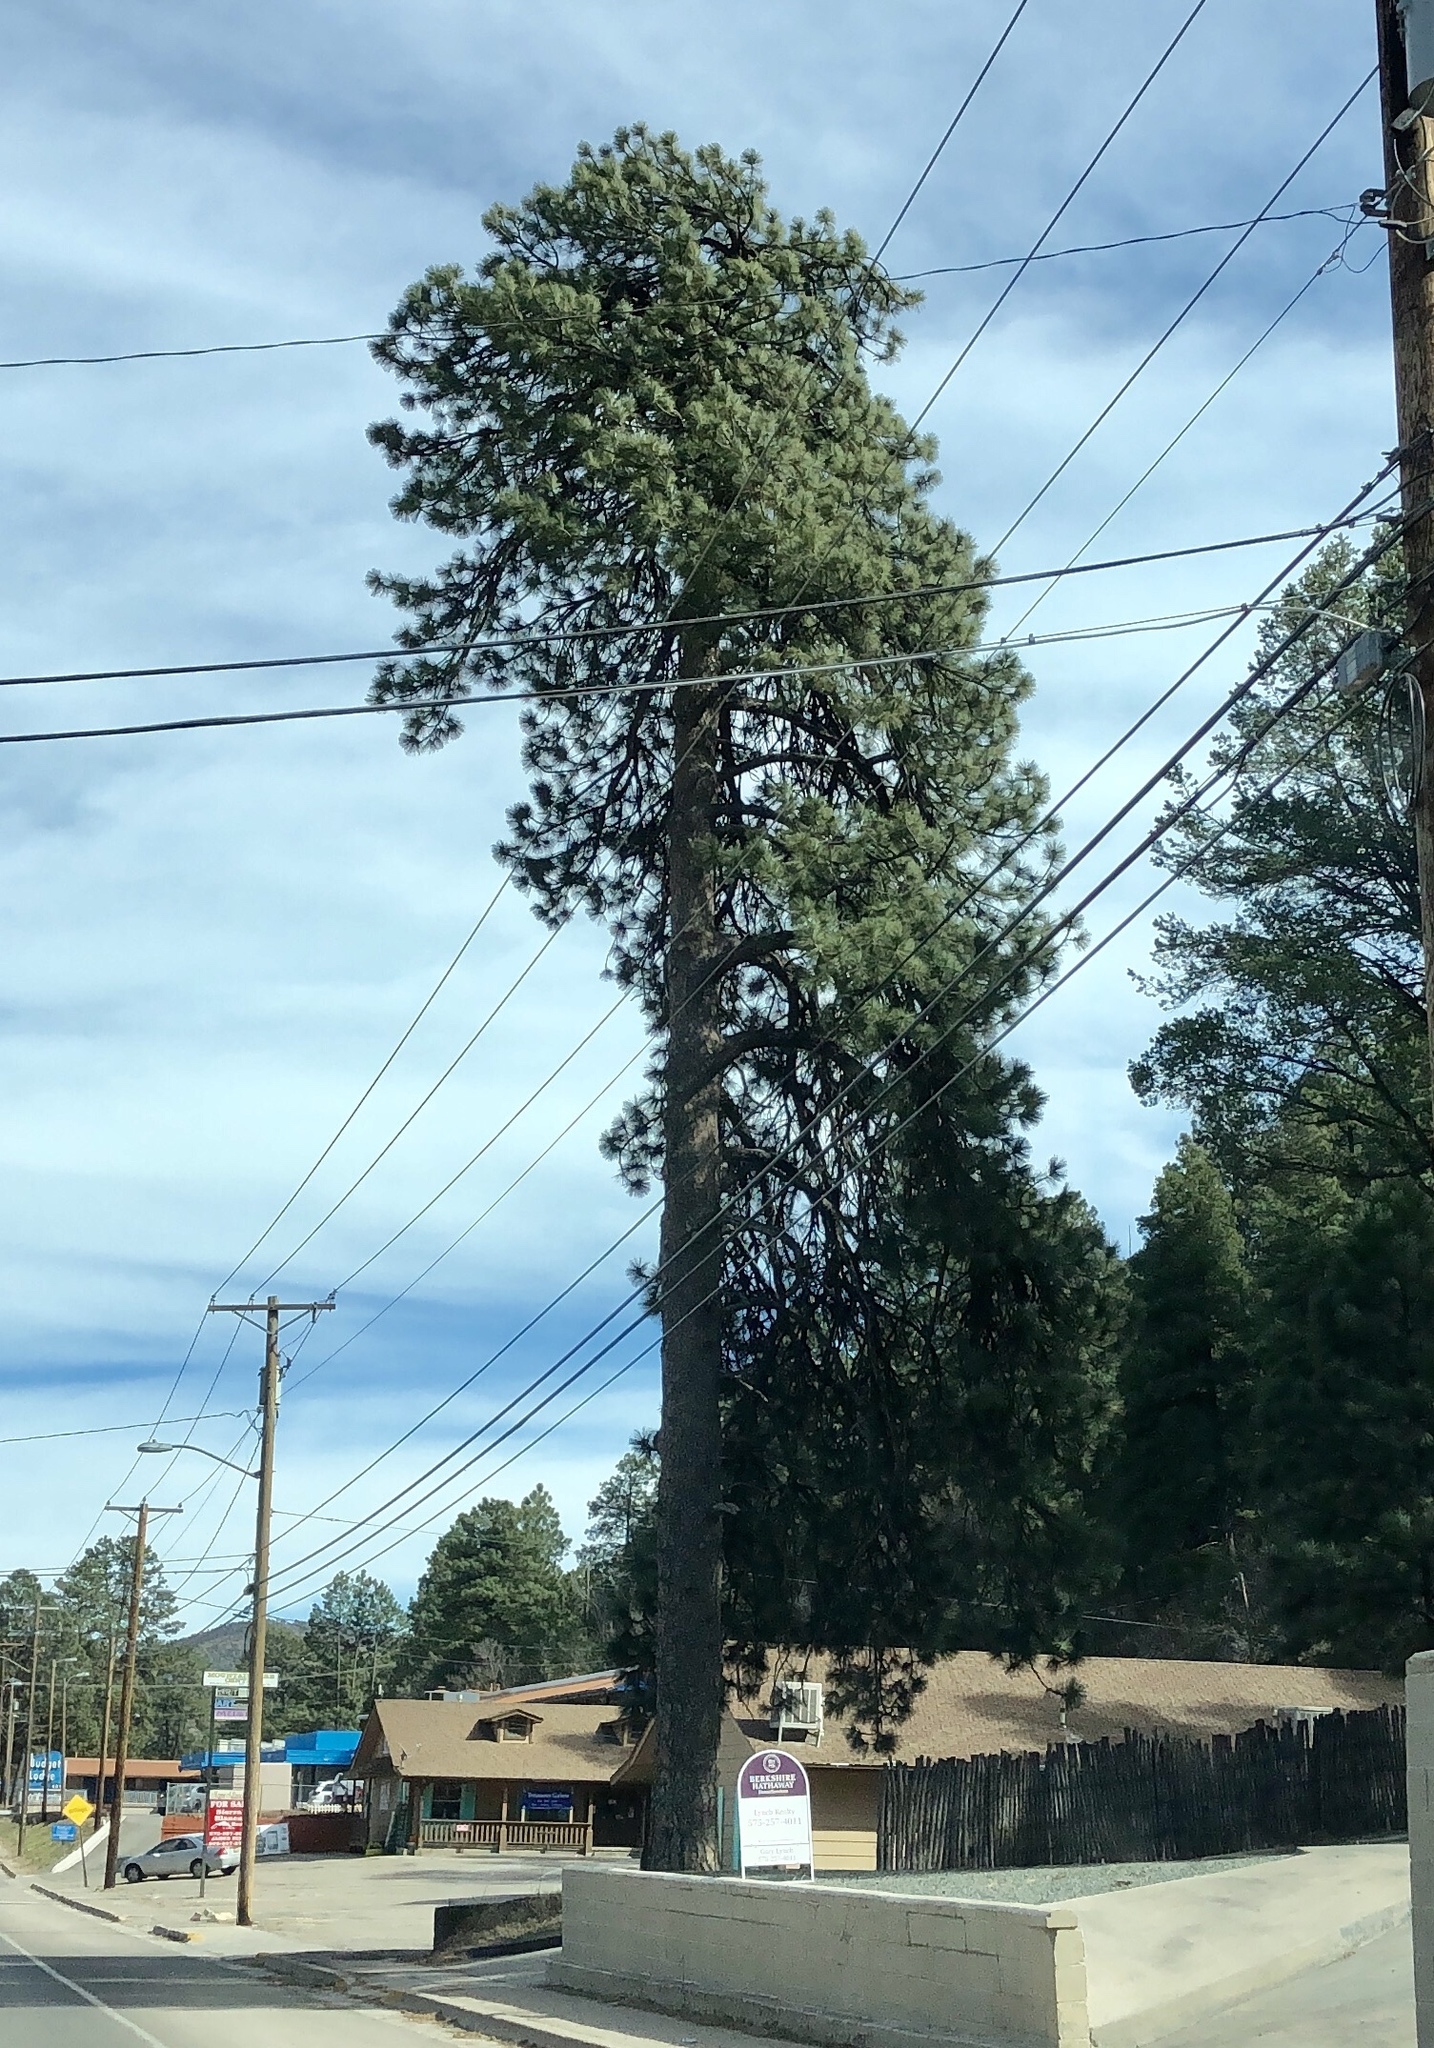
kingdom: Plantae
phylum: Tracheophyta
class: Pinopsida
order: Pinales
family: Pinaceae
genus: Pinus
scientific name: Pinus ponderosa
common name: Western yellow-pine
